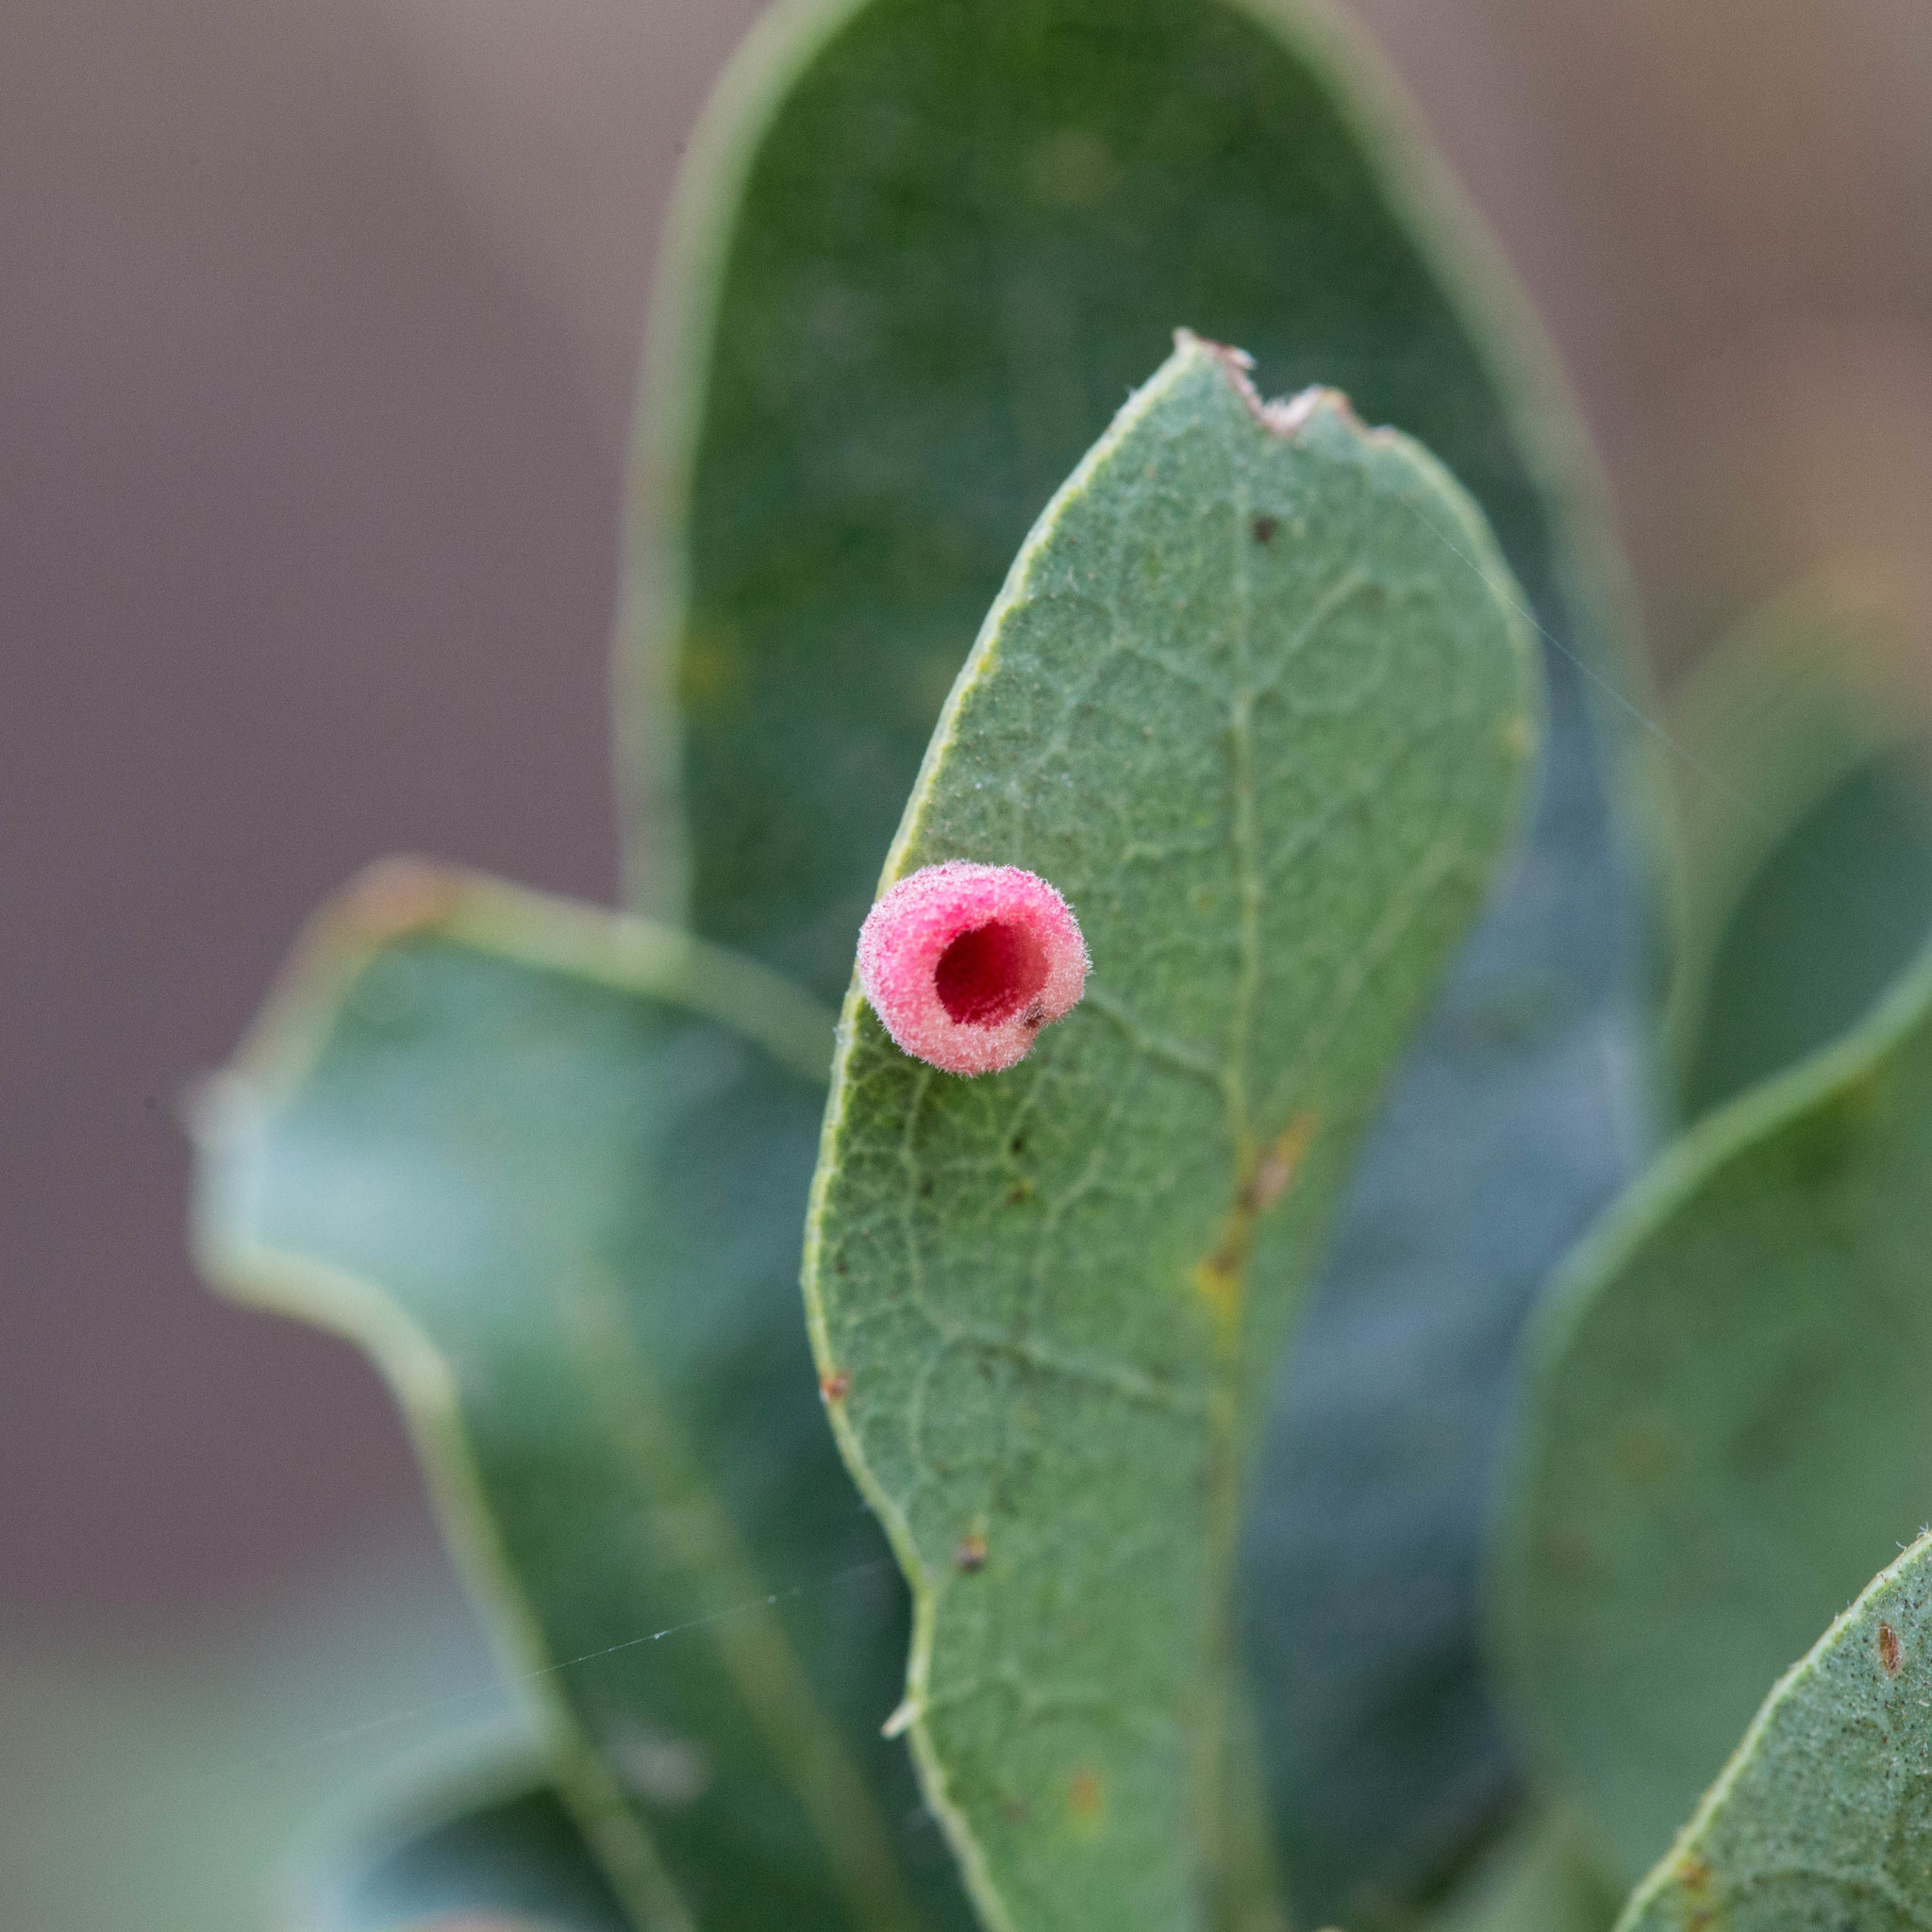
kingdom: Animalia
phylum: Arthropoda
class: Insecta
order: Hymenoptera
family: Cynipidae
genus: Phylloteras
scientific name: Phylloteras
